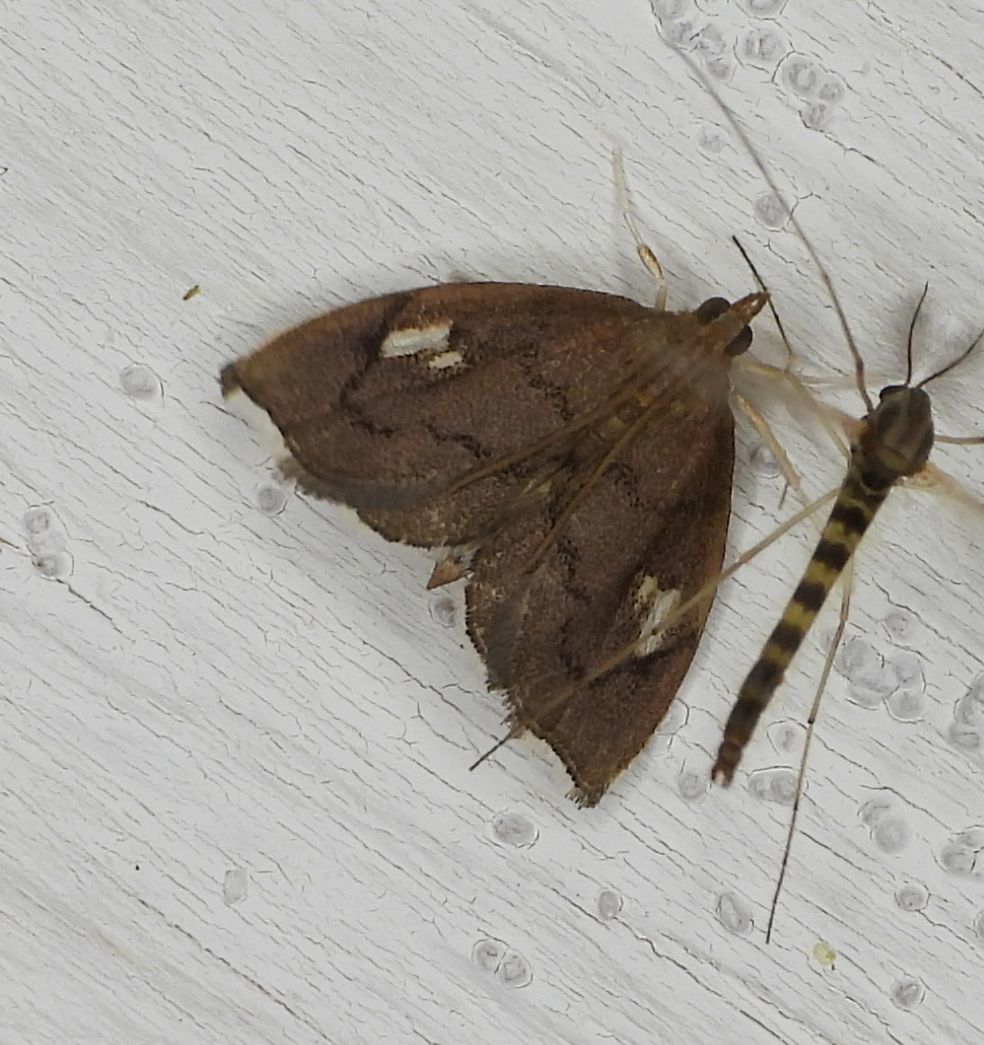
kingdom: Animalia
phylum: Arthropoda
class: Insecta
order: Lepidoptera
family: Crambidae
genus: Perispasta
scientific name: Perispasta caeculalis
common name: Titian peale's moth
